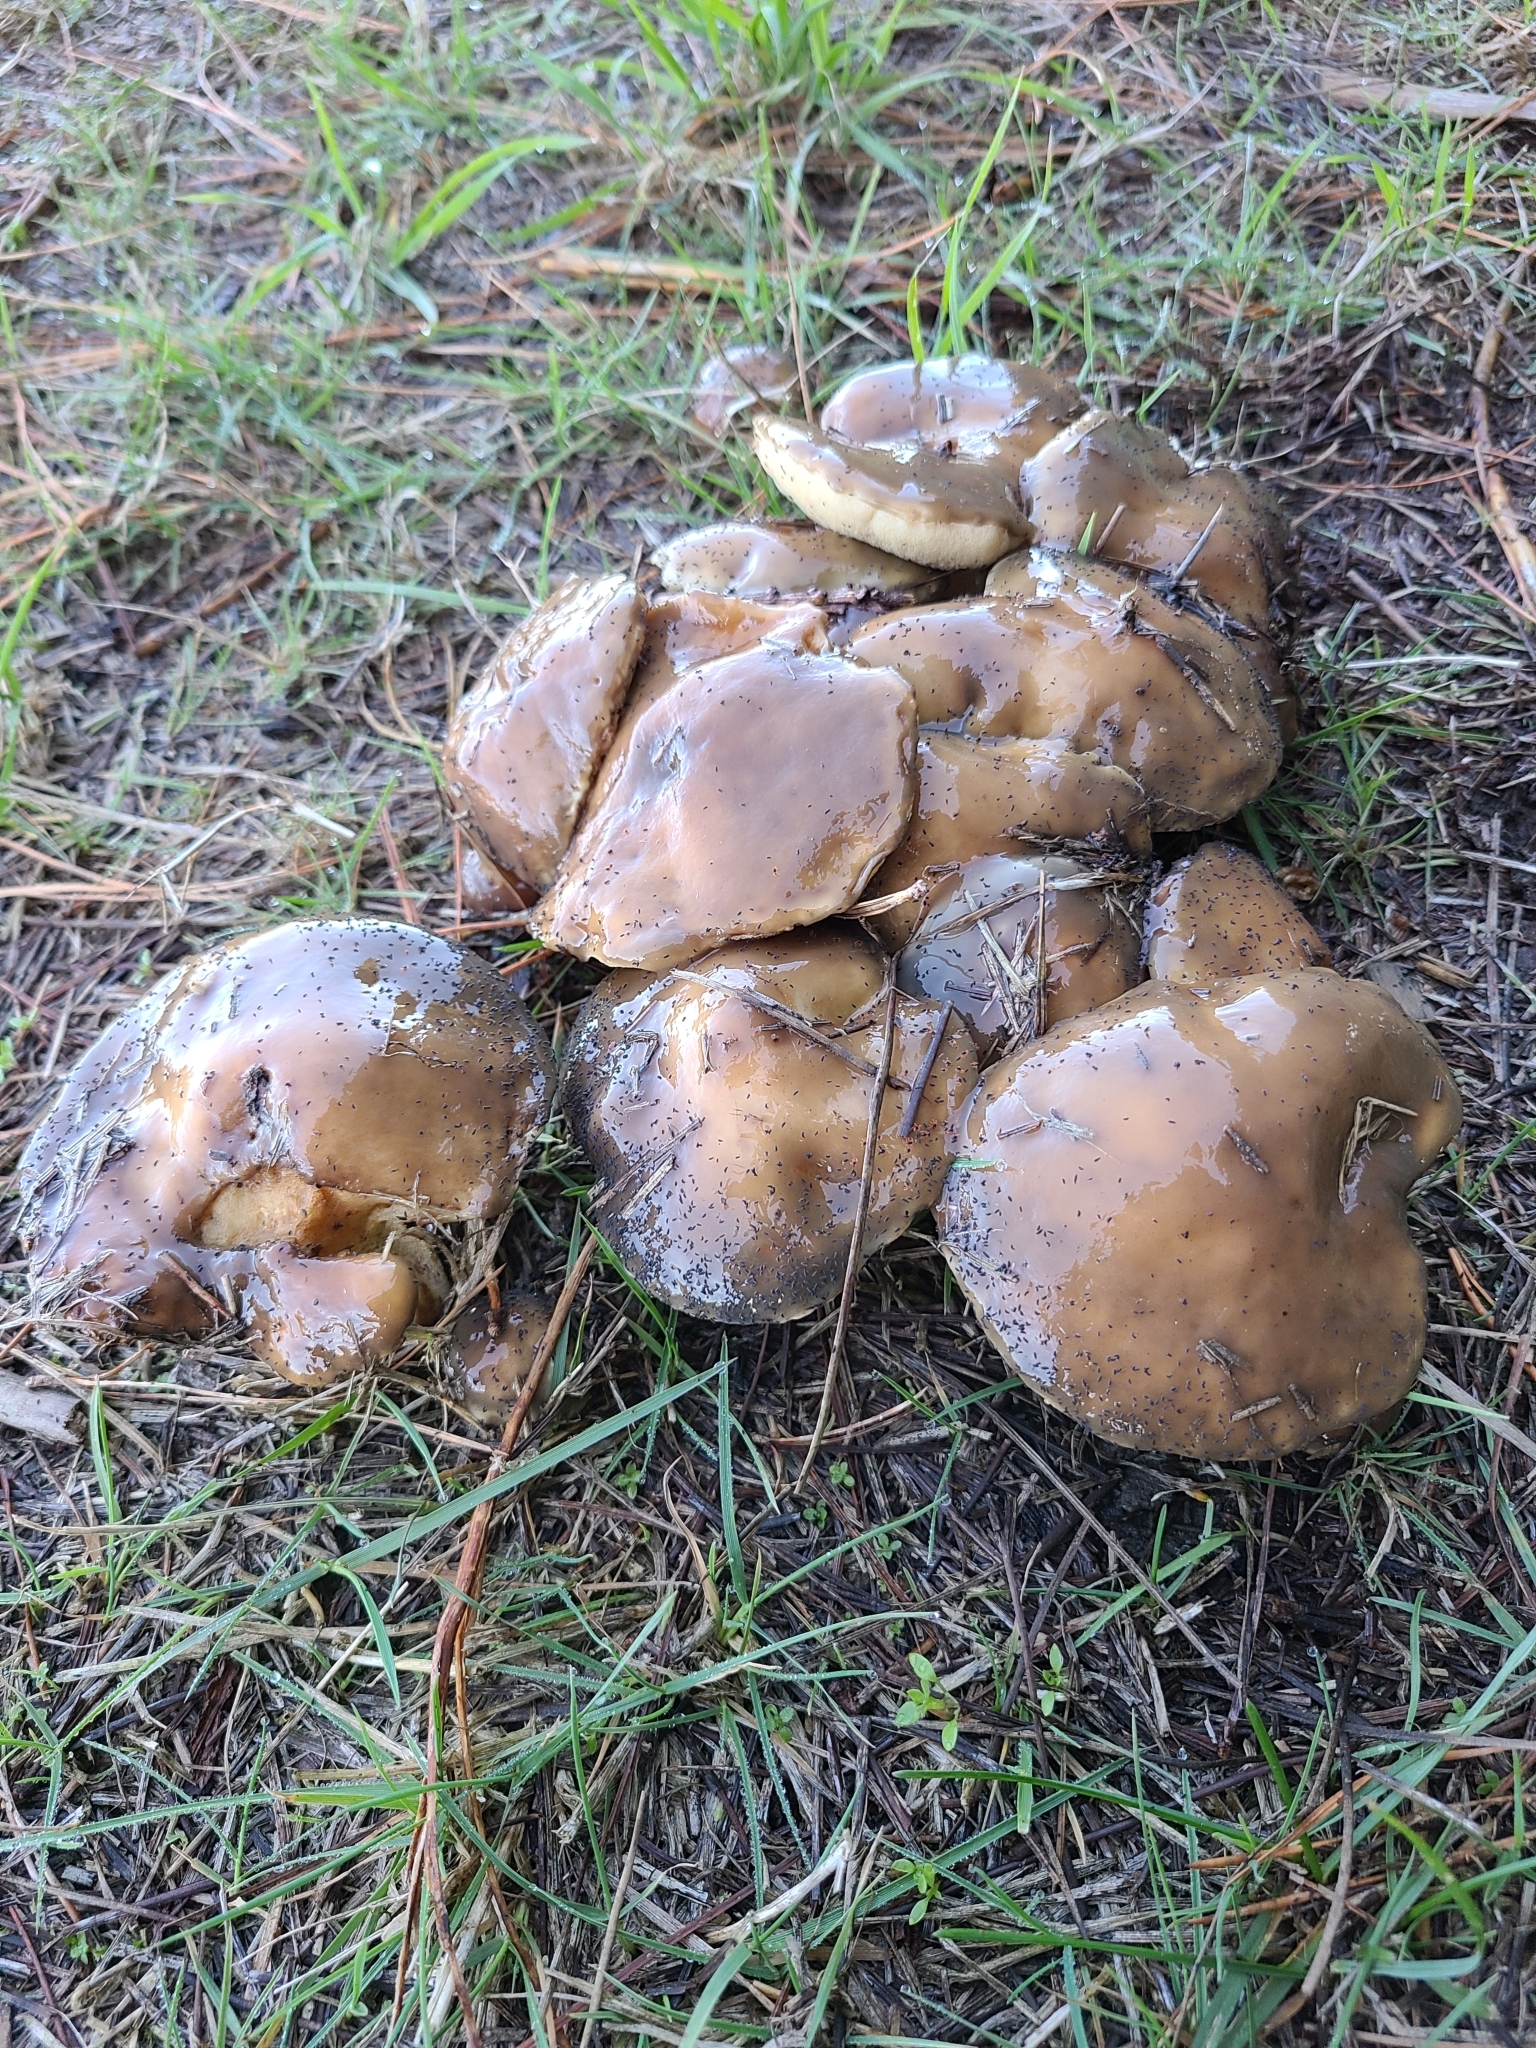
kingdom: Fungi
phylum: Basidiomycota
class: Agaricomycetes
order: Boletales
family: Suillaceae
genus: Suillus
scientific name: Suillus pungens
